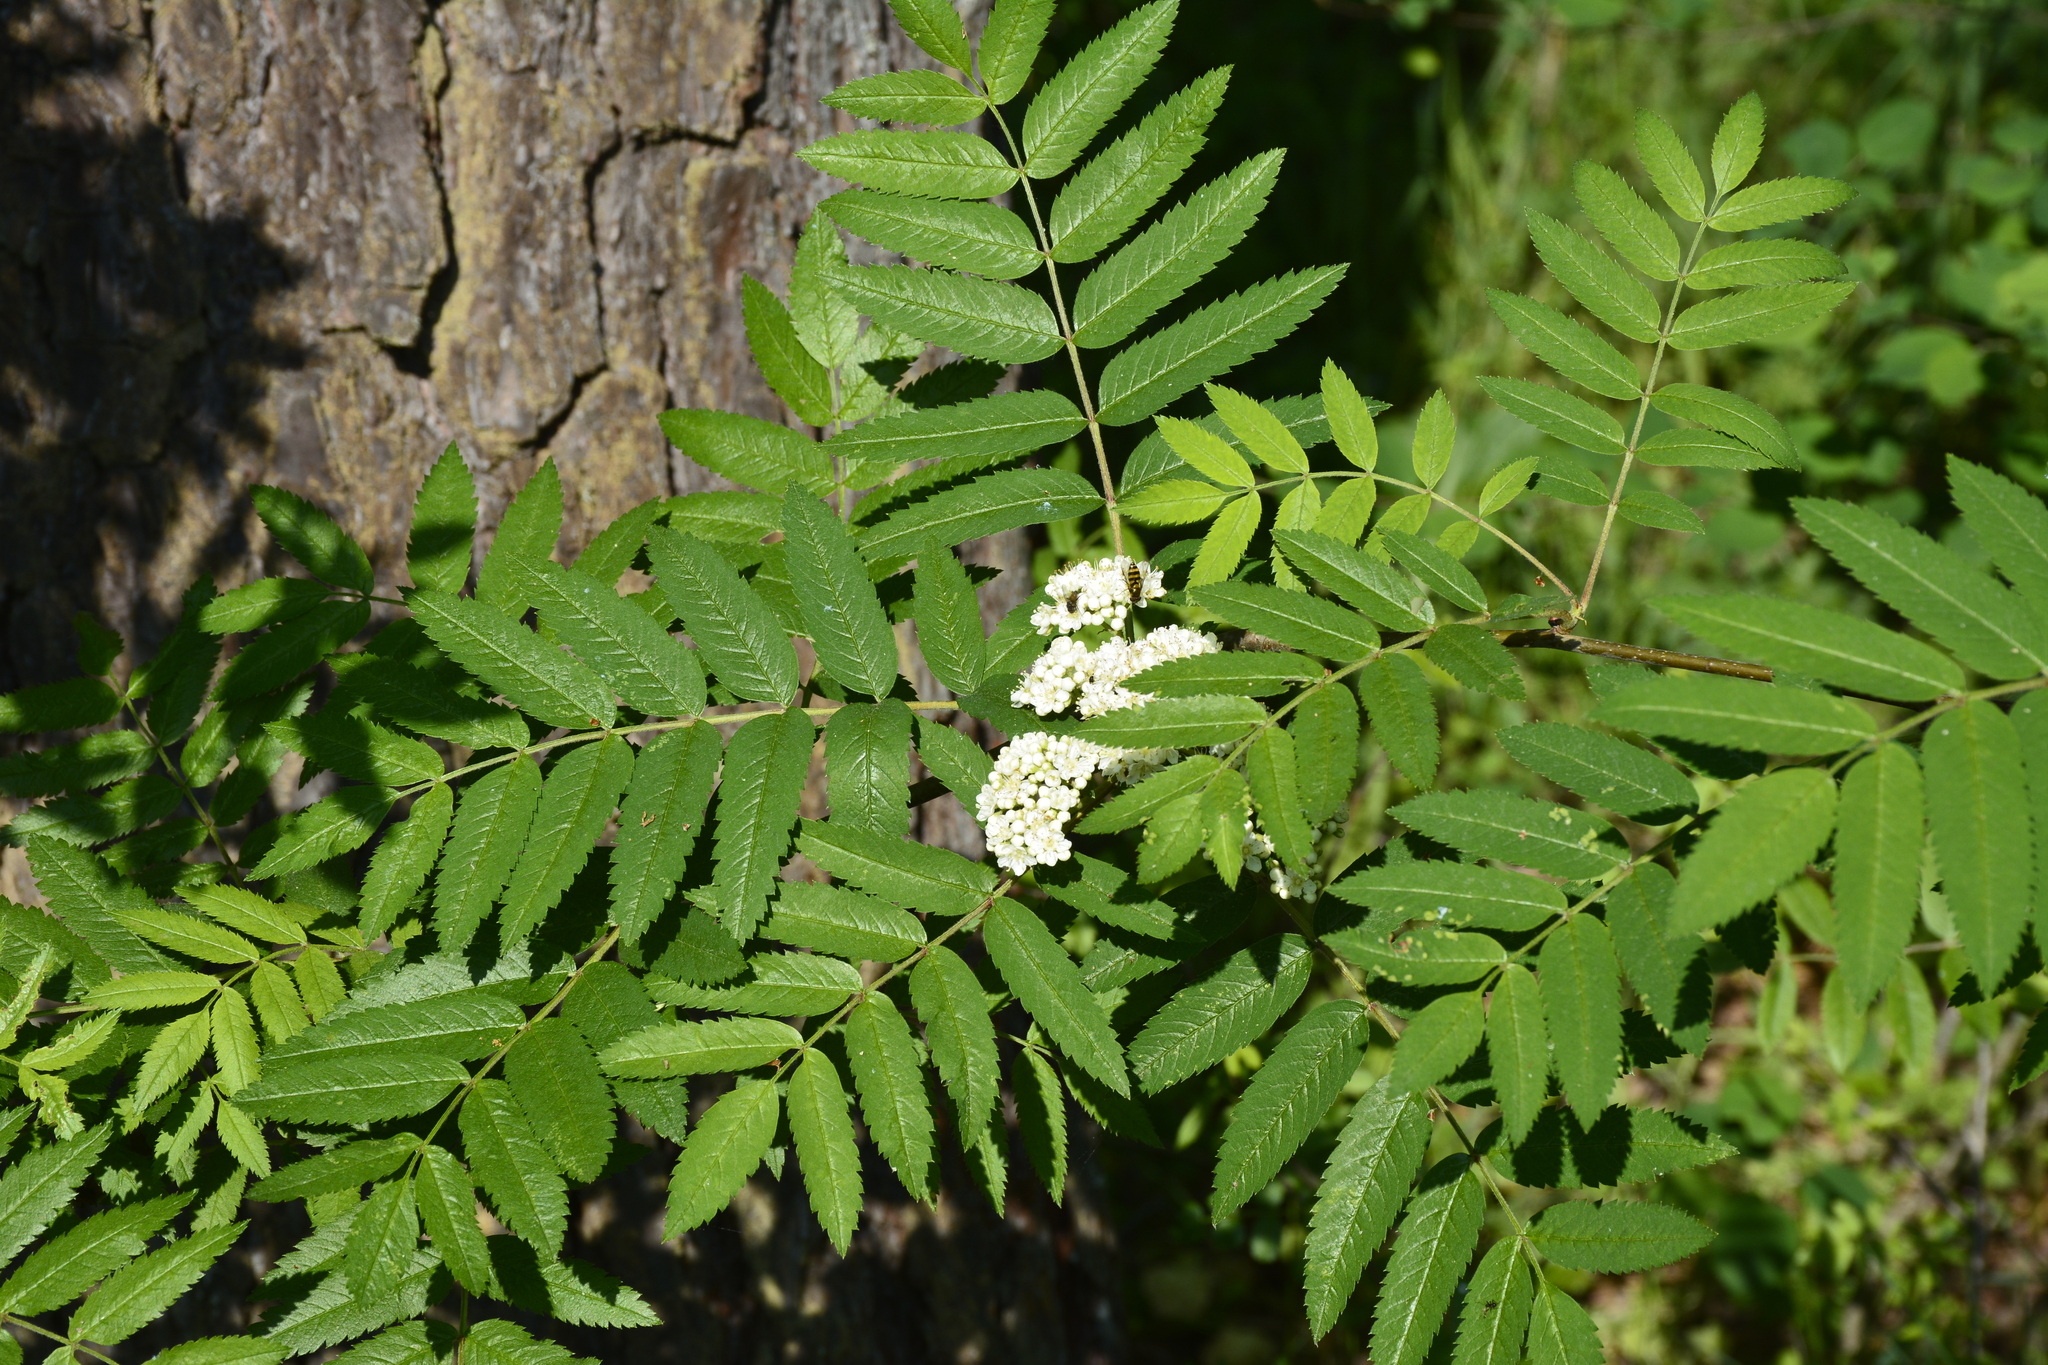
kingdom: Plantae
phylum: Tracheophyta
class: Magnoliopsida
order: Rosales
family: Rosaceae
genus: Sorbus
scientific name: Sorbus aucuparia
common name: Rowan
